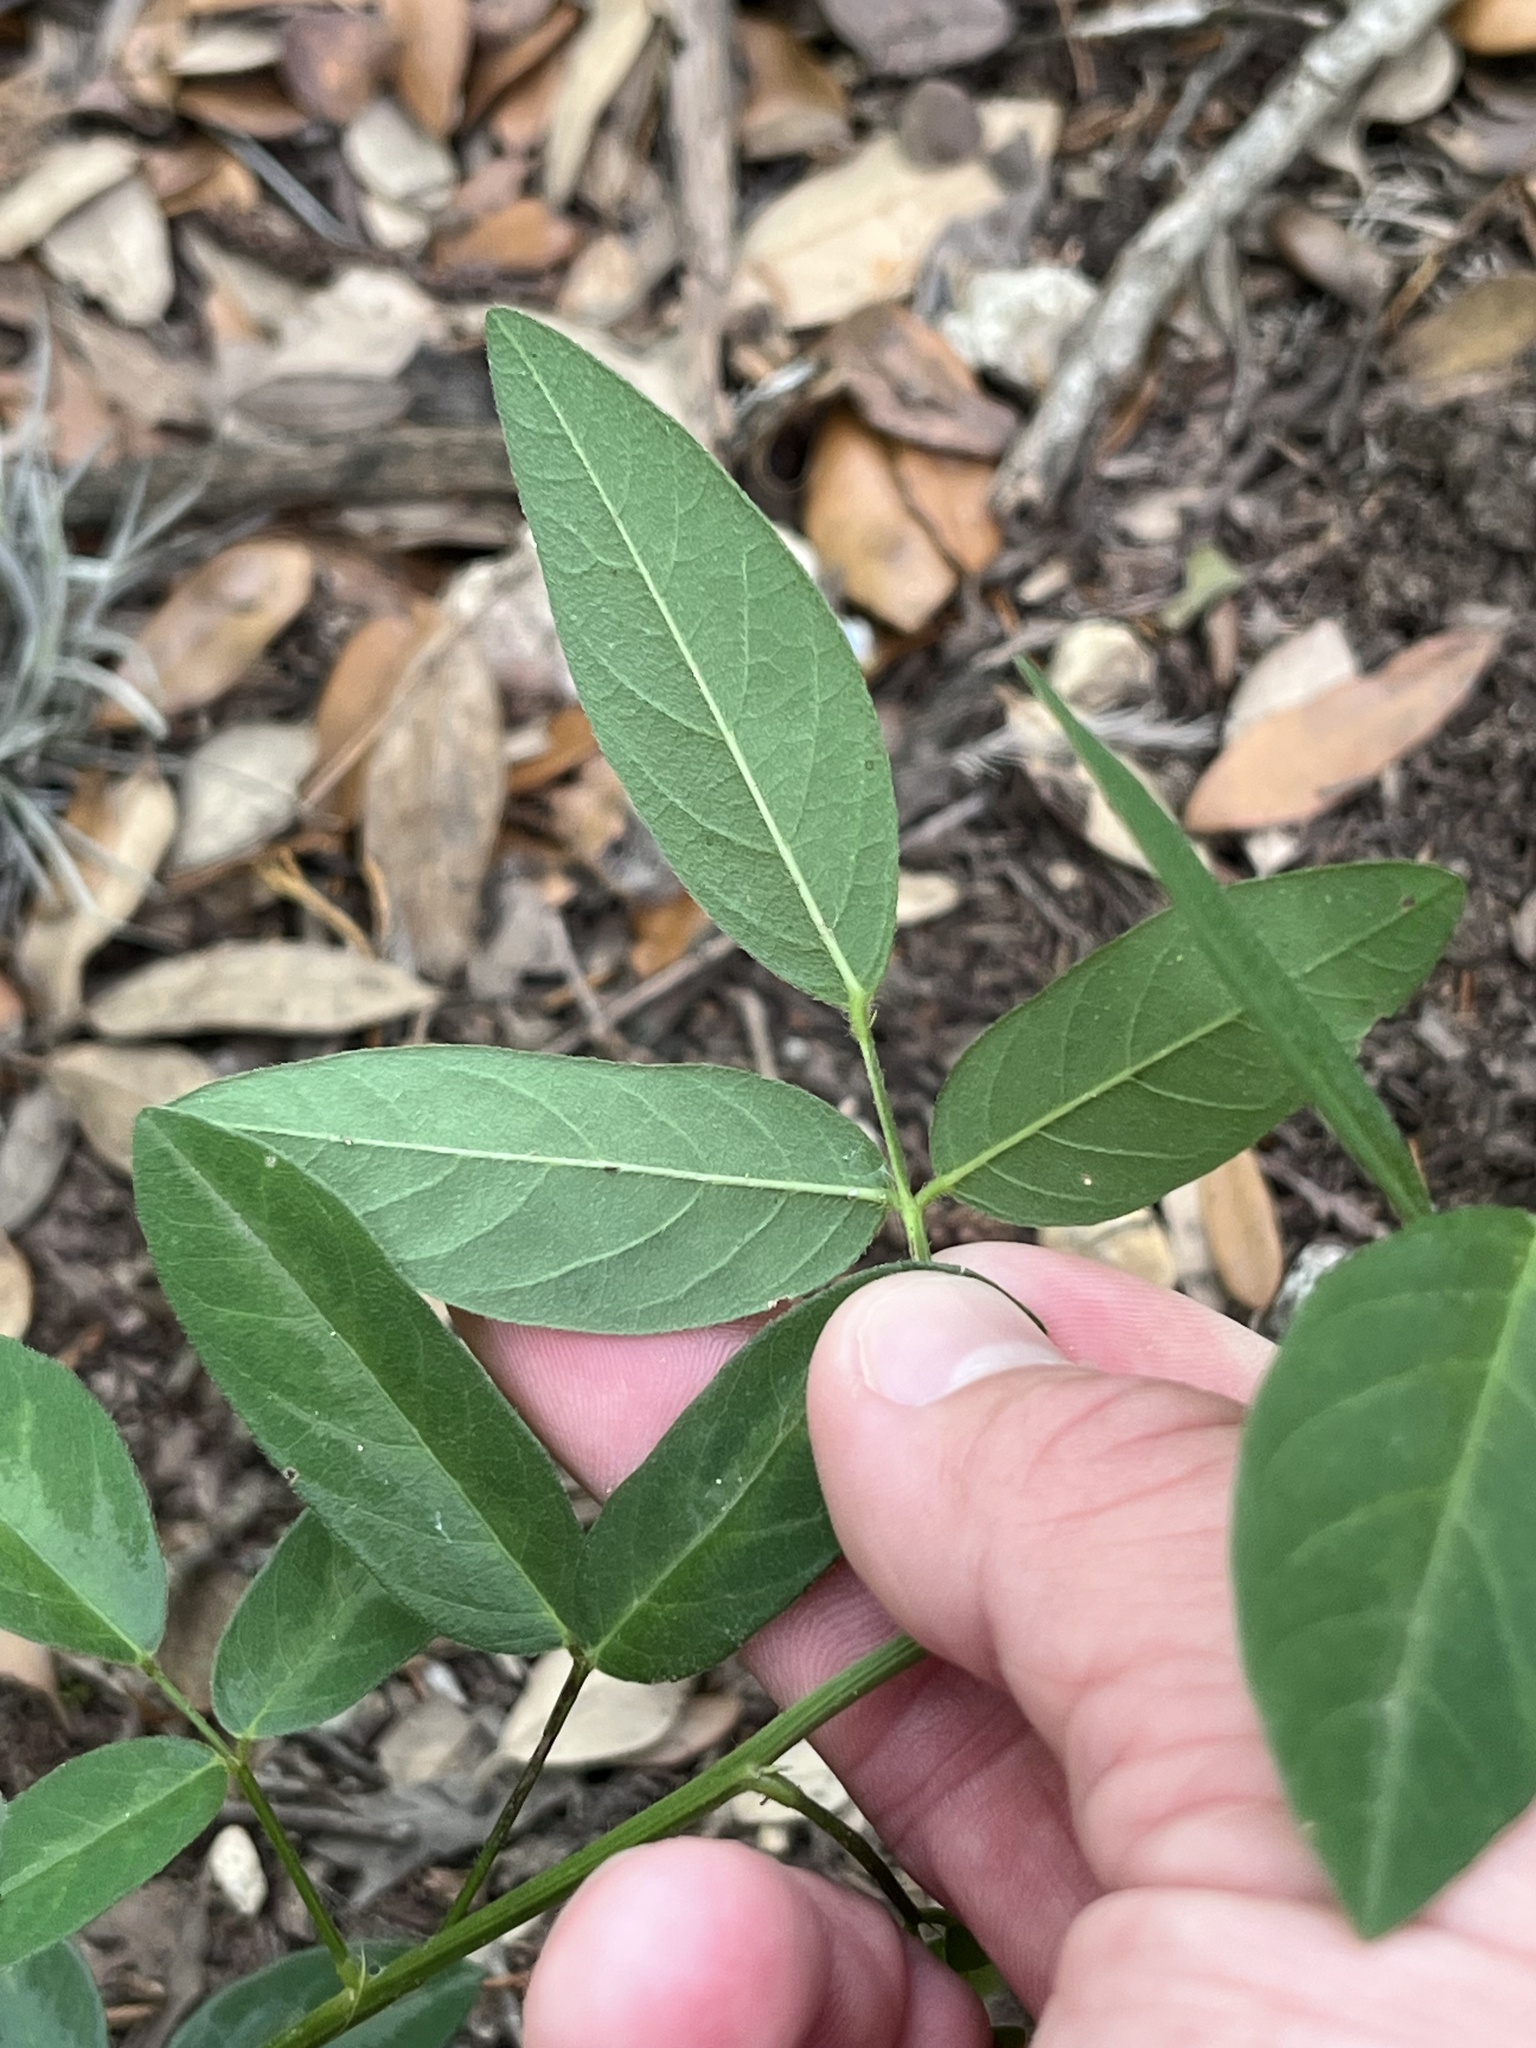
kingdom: Plantae
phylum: Tracheophyta
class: Magnoliopsida
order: Fabales
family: Fabaceae
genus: Desmodium
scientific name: Desmodium paniculatum
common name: Panicled tick-clover
